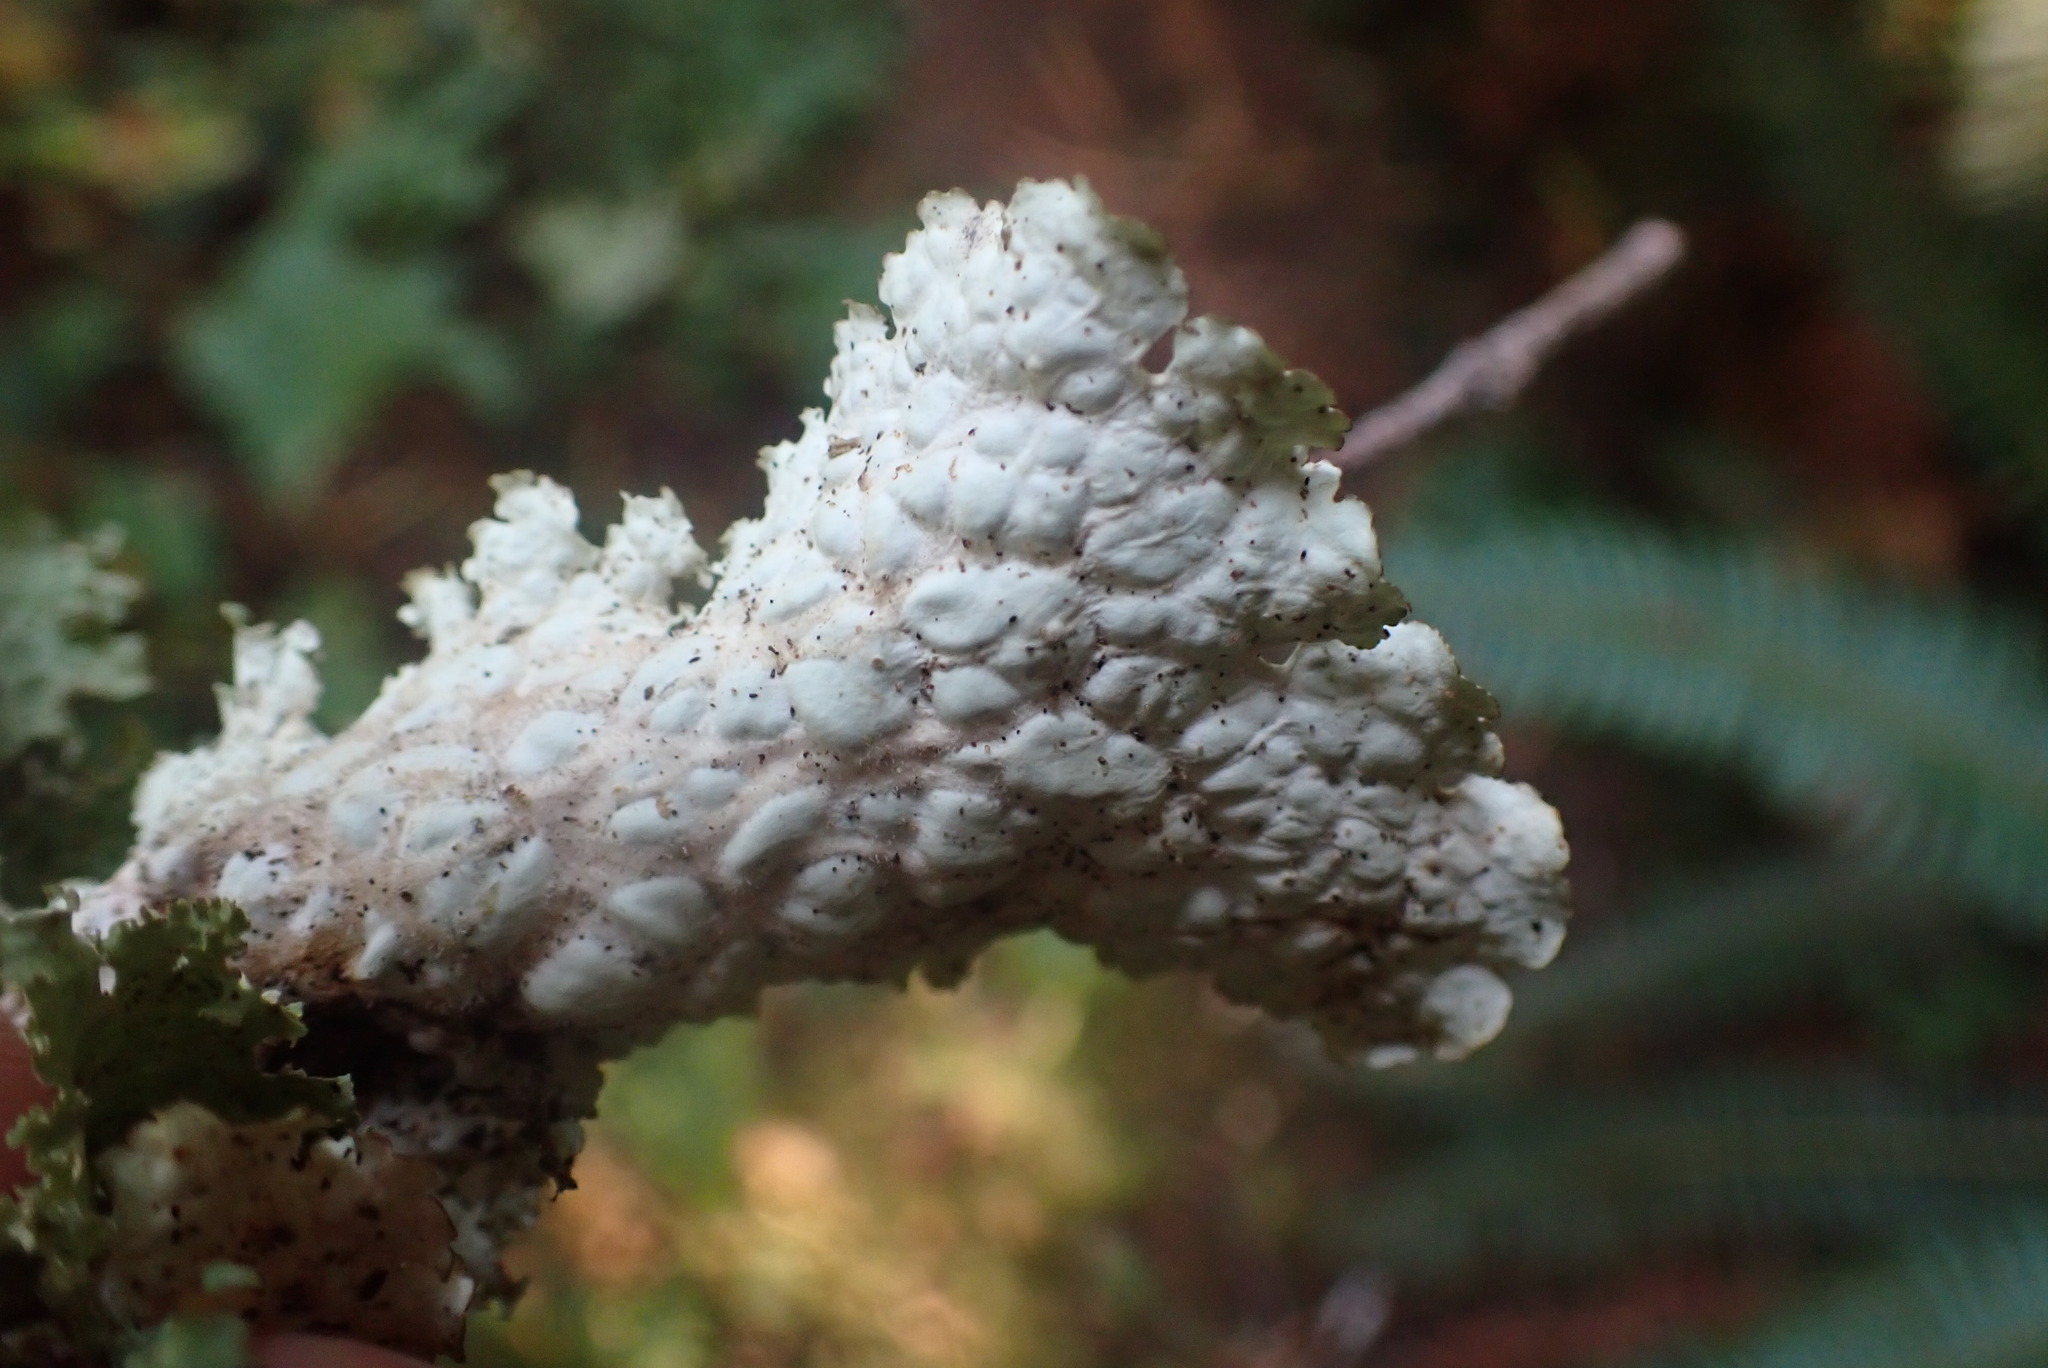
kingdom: Fungi
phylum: Ascomycota
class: Lecanoromycetes
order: Peltigerales
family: Lobariaceae
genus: Lobaria
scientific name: Lobaria oregana
